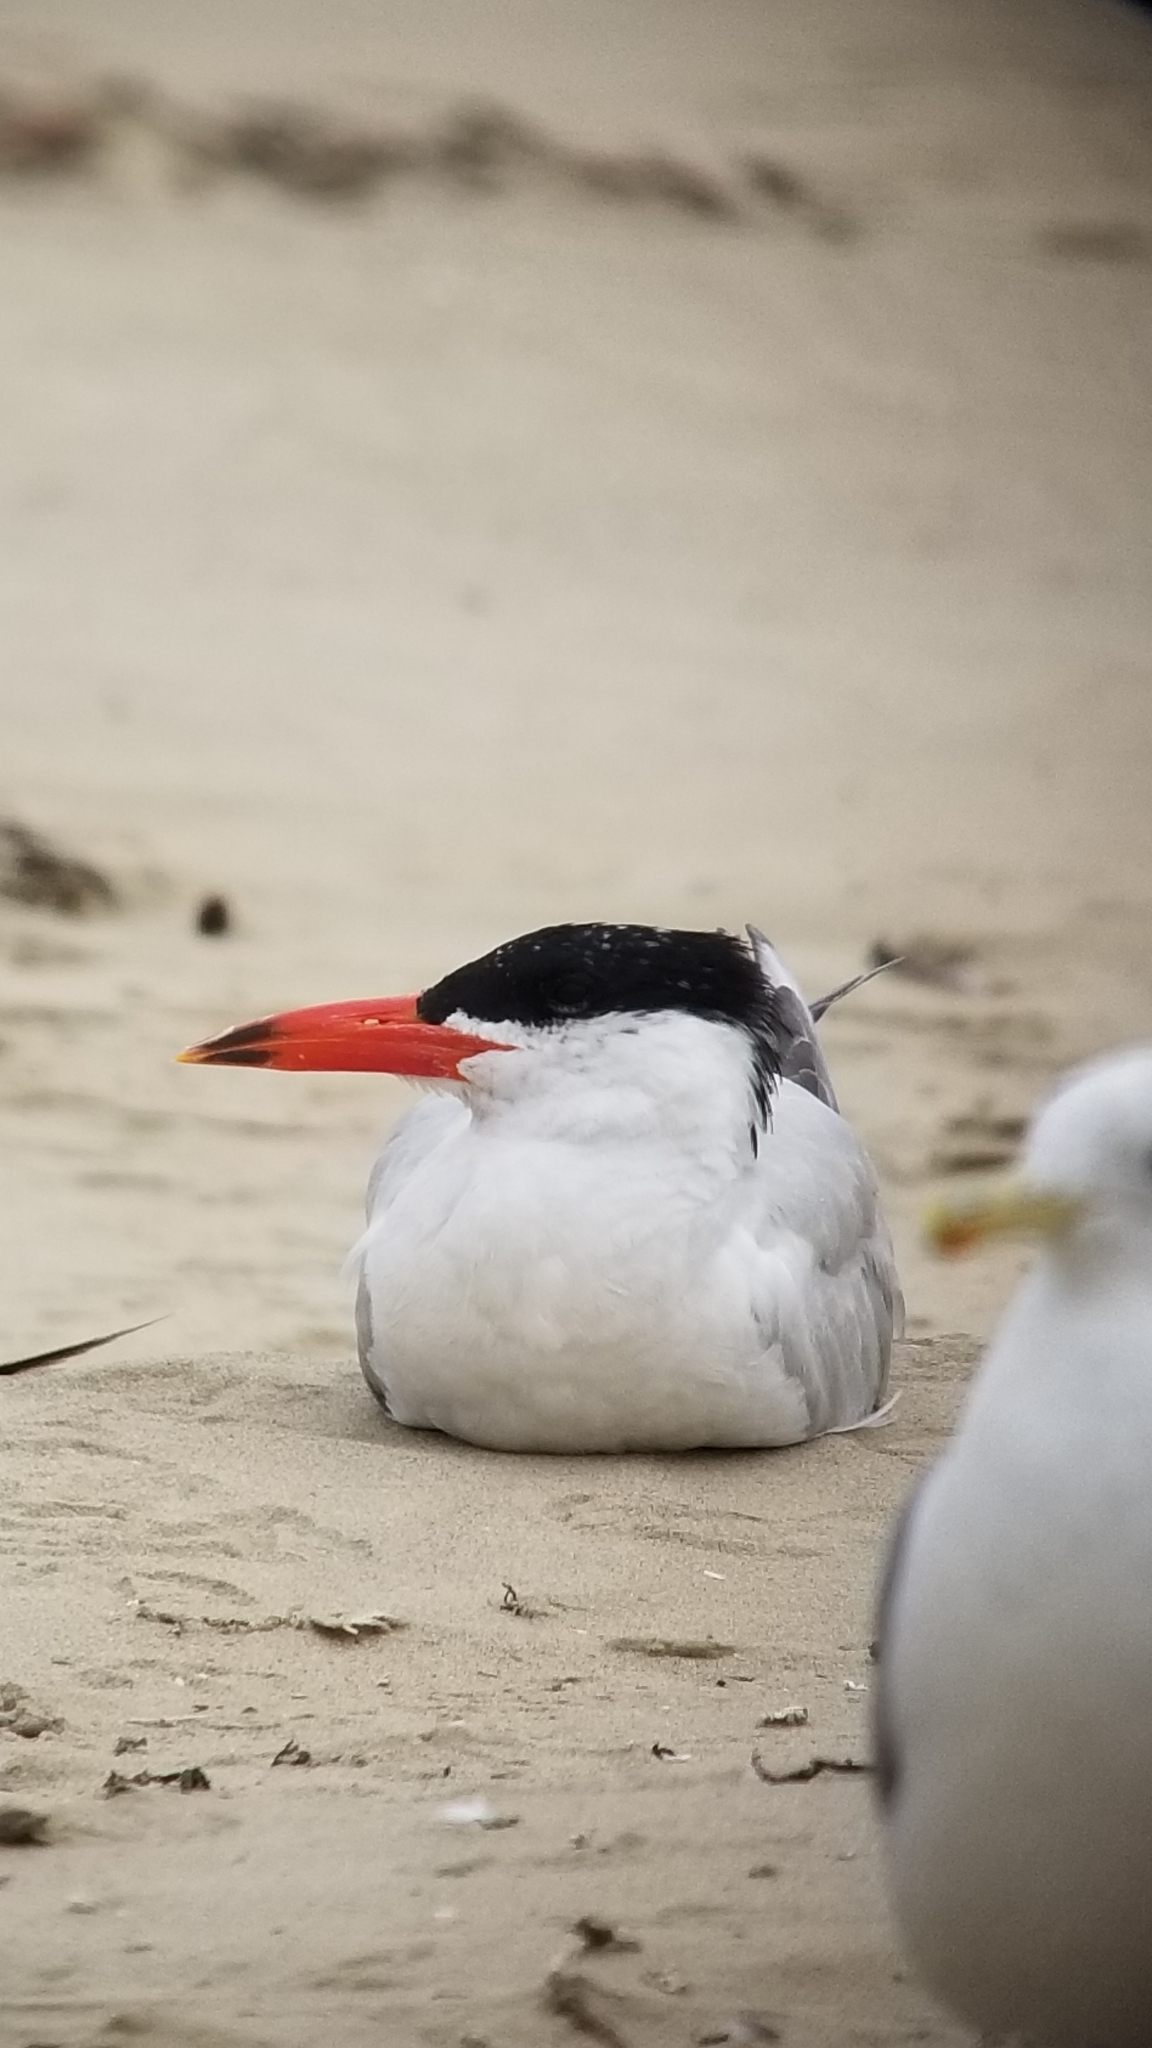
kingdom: Animalia
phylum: Chordata
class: Aves
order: Charadriiformes
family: Laridae
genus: Hydroprogne
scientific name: Hydroprogne caspia
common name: Caspian tern
